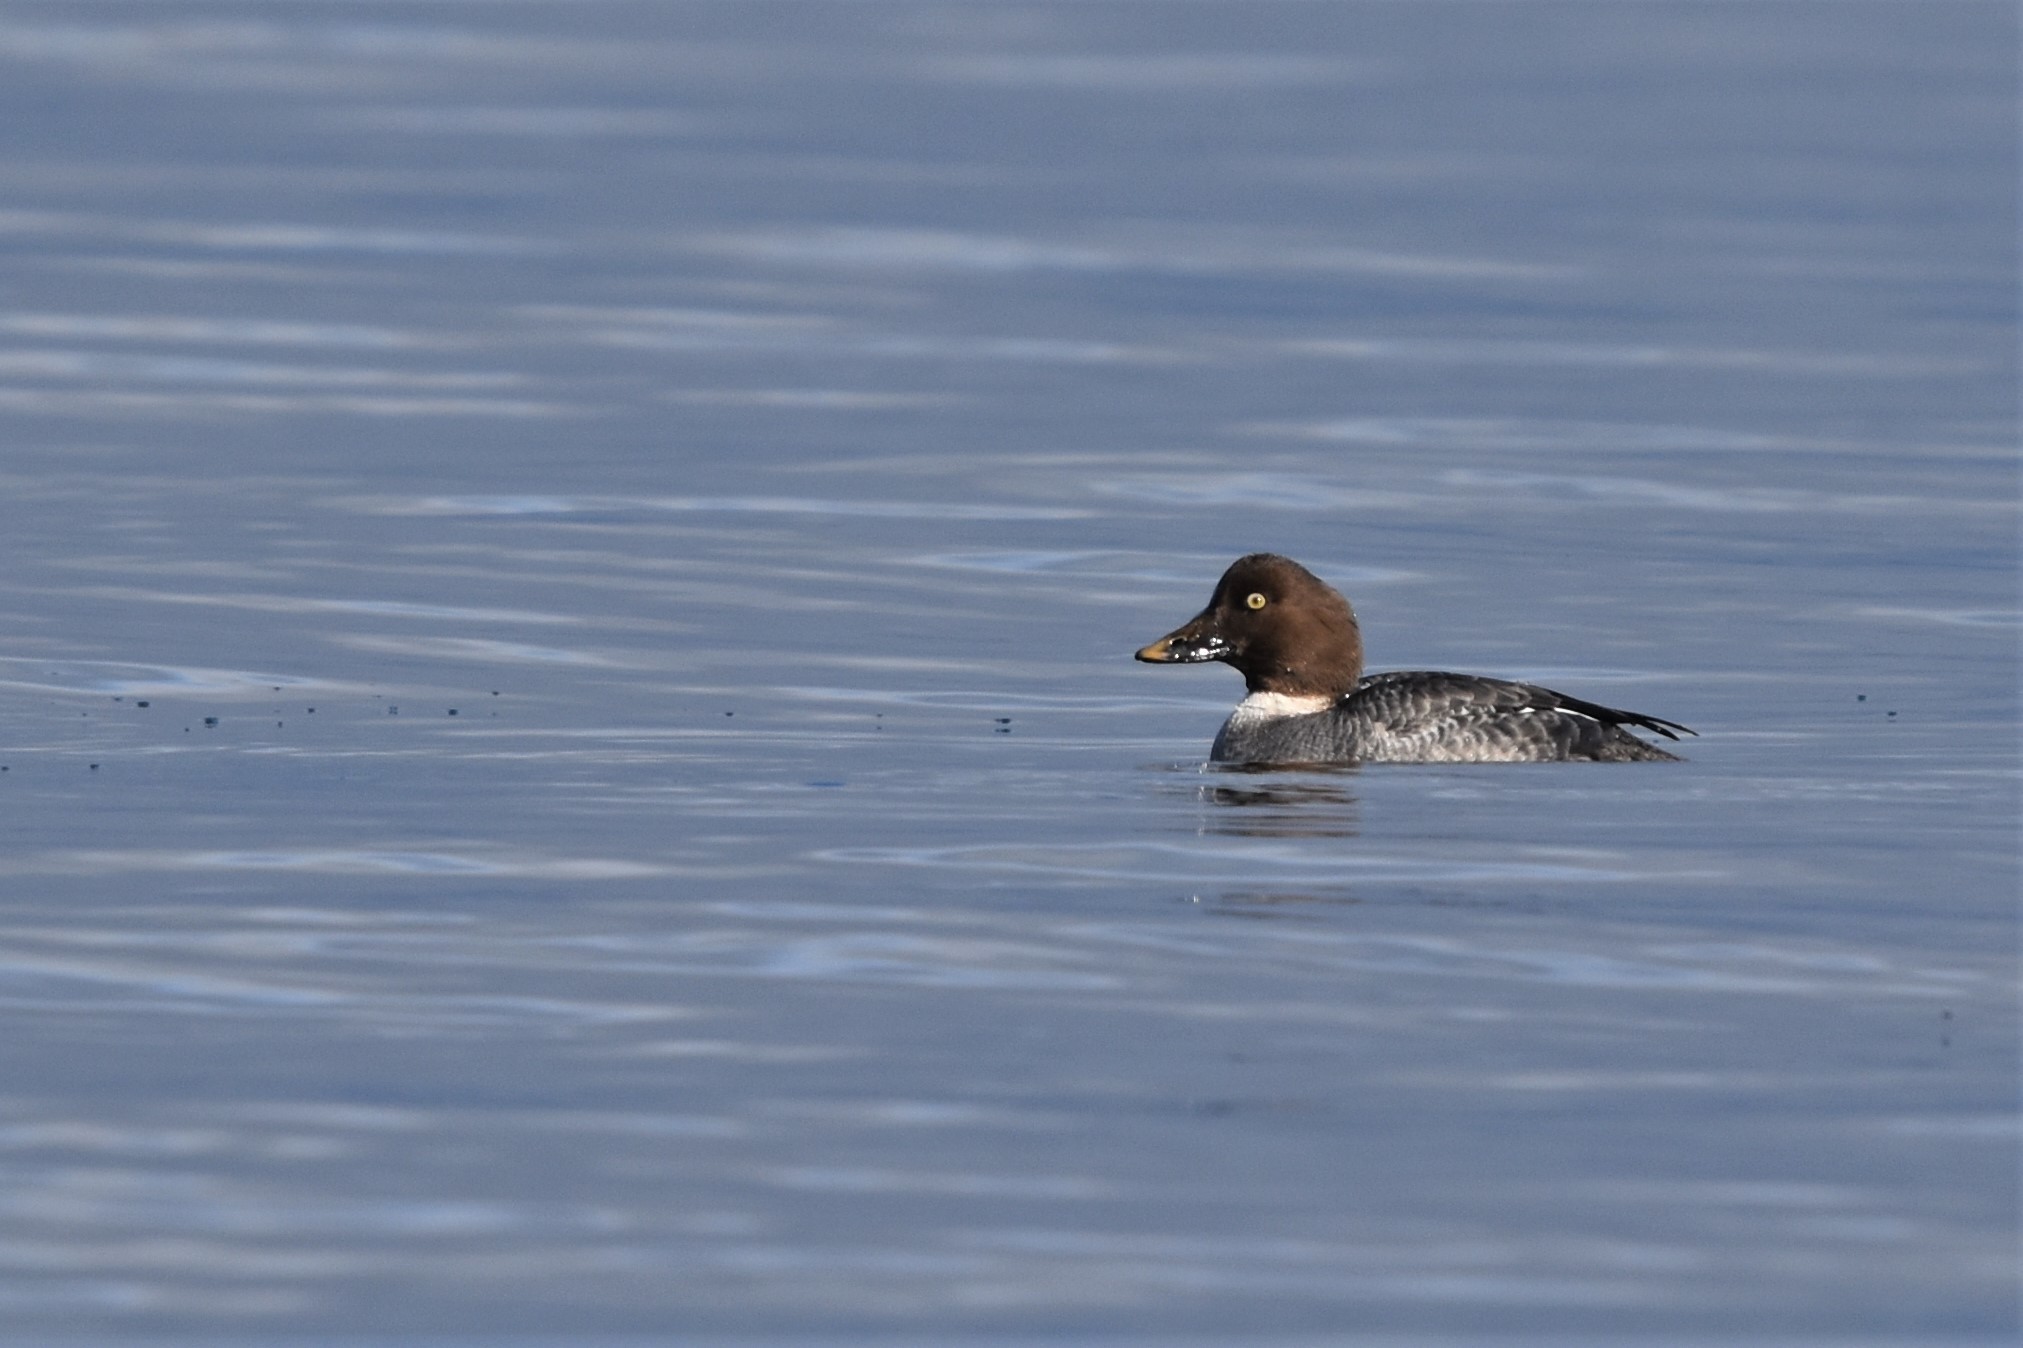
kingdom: Animalia
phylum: Chordata
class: Aves
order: Anseriformes
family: Anatidae
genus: Bucephala
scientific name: Bucephala clangula
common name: Common goldeneye
